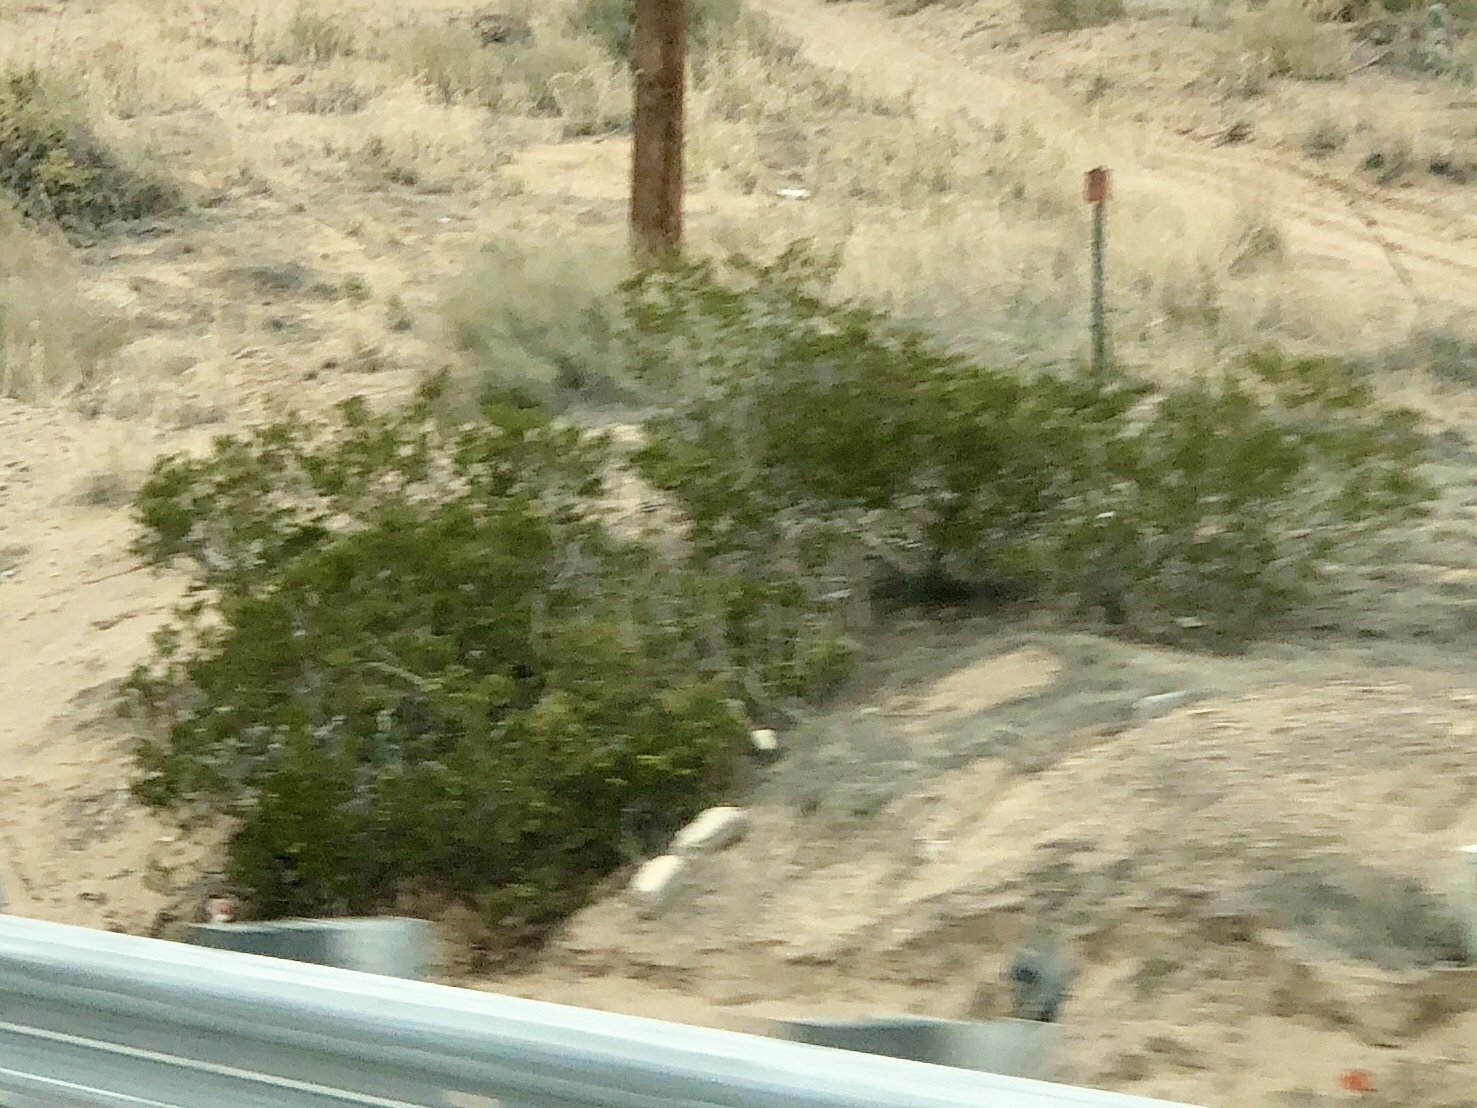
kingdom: Plantae
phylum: Tracheophyta
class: Magnoliopsida
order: Zygophyllales
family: Zygophyllaceae
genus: Larrea
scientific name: Larrea tridentata
